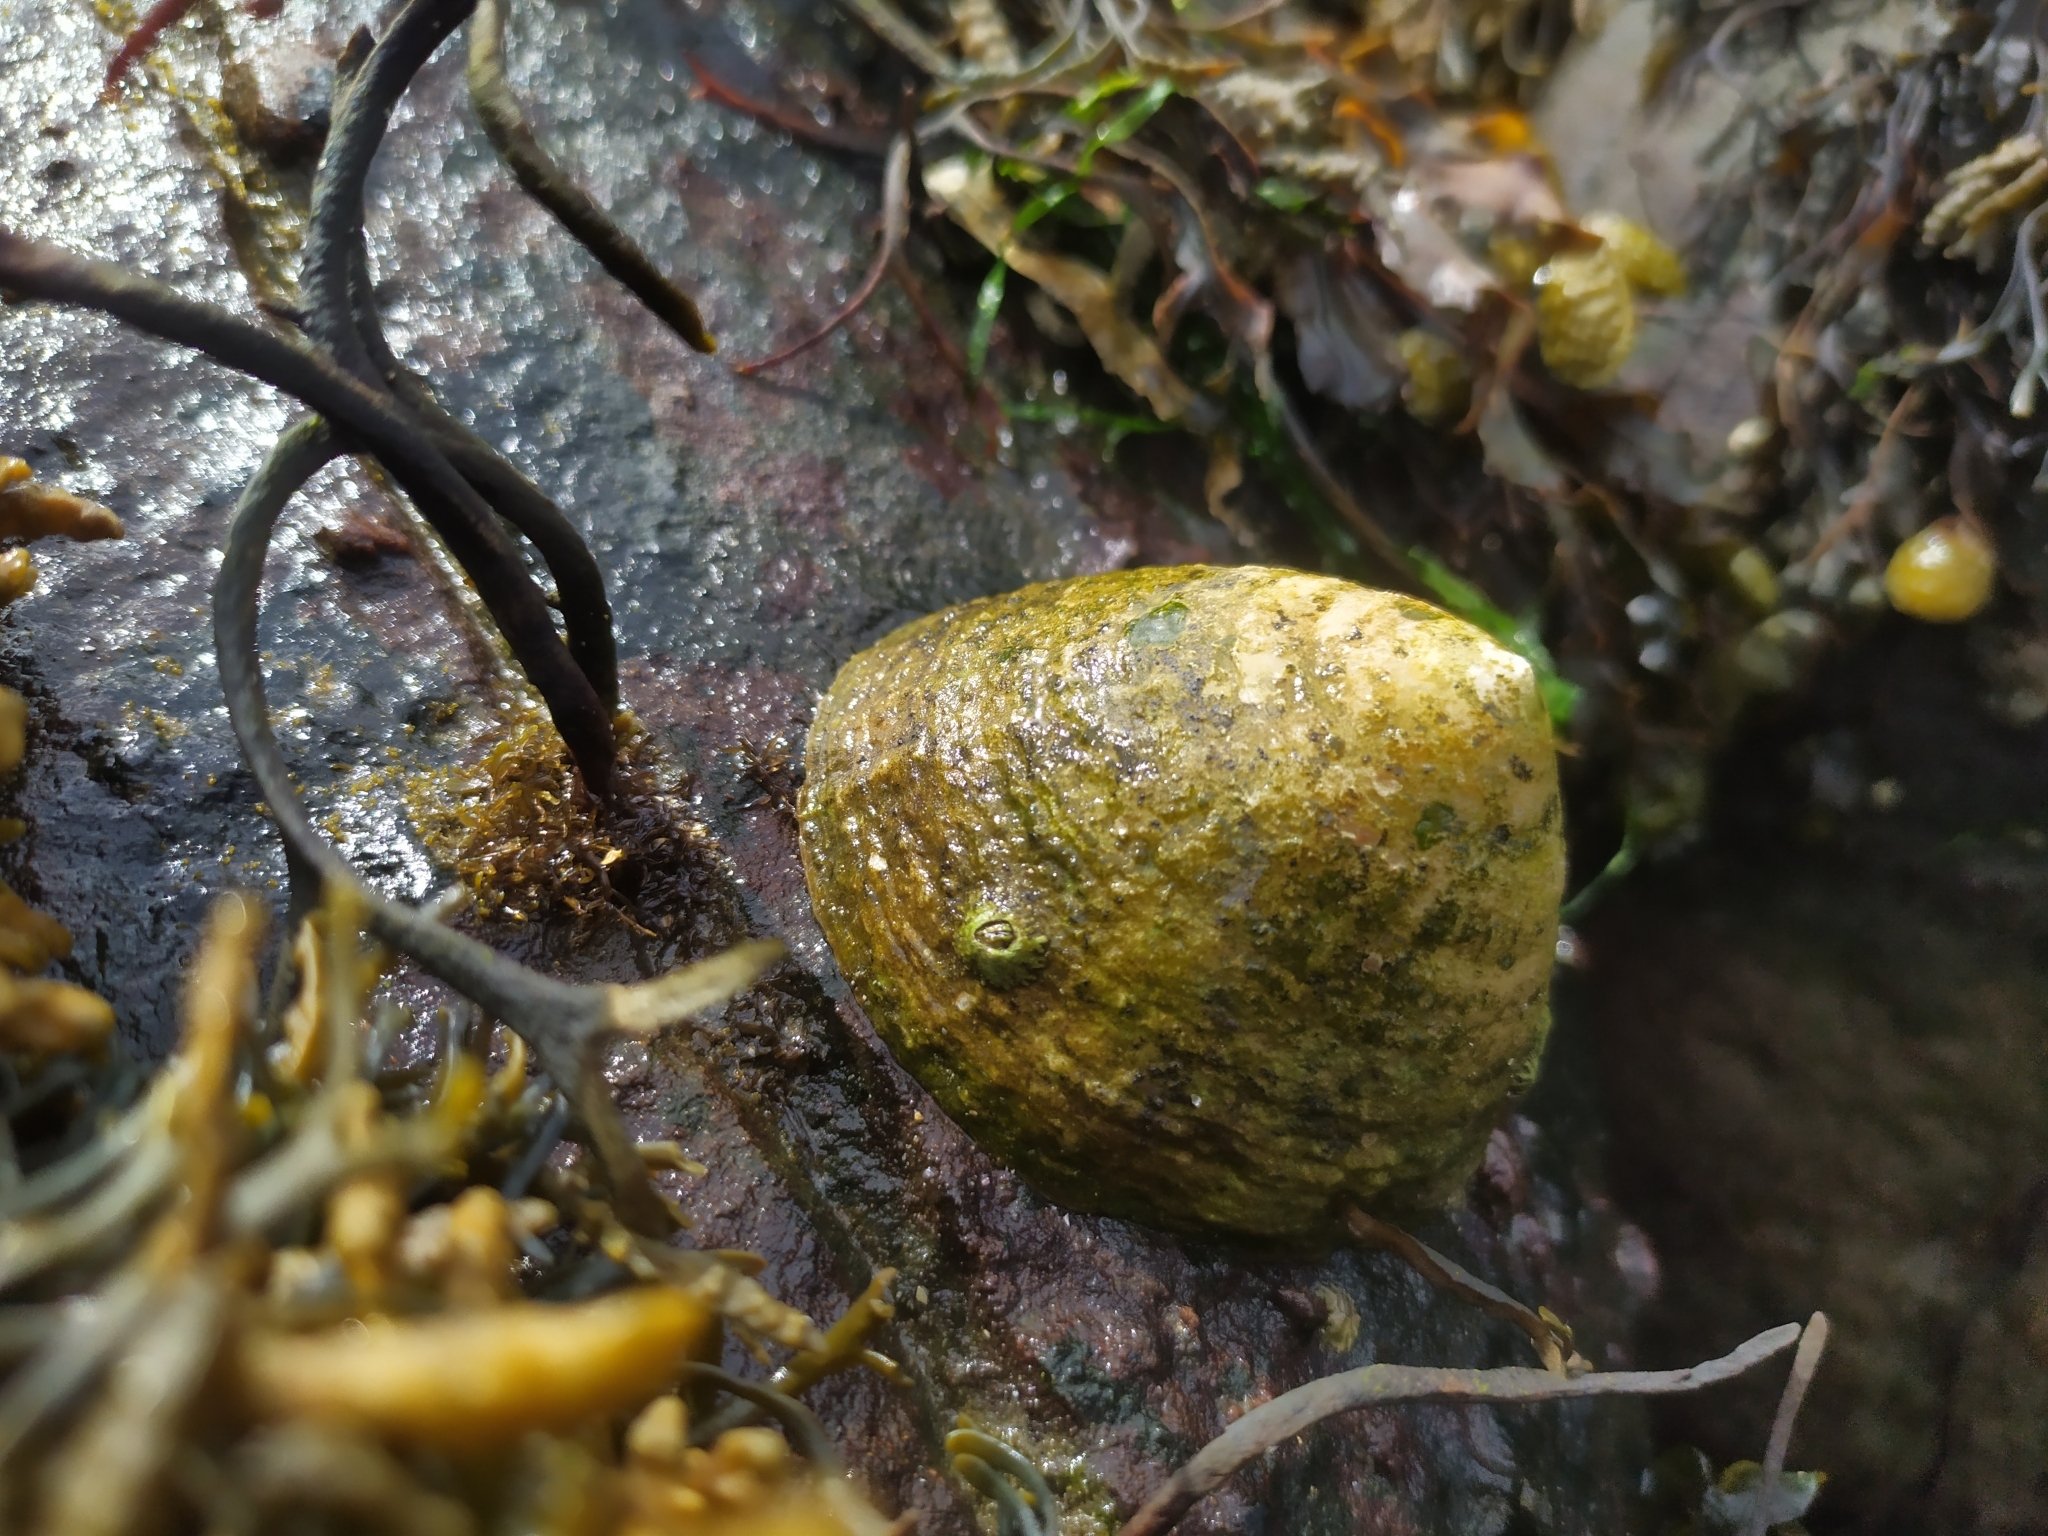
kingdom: Animalia
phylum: Mollusca
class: Gastropoda
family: Patellidae
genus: Patella
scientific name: Patella vulgata
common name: Common limpet
